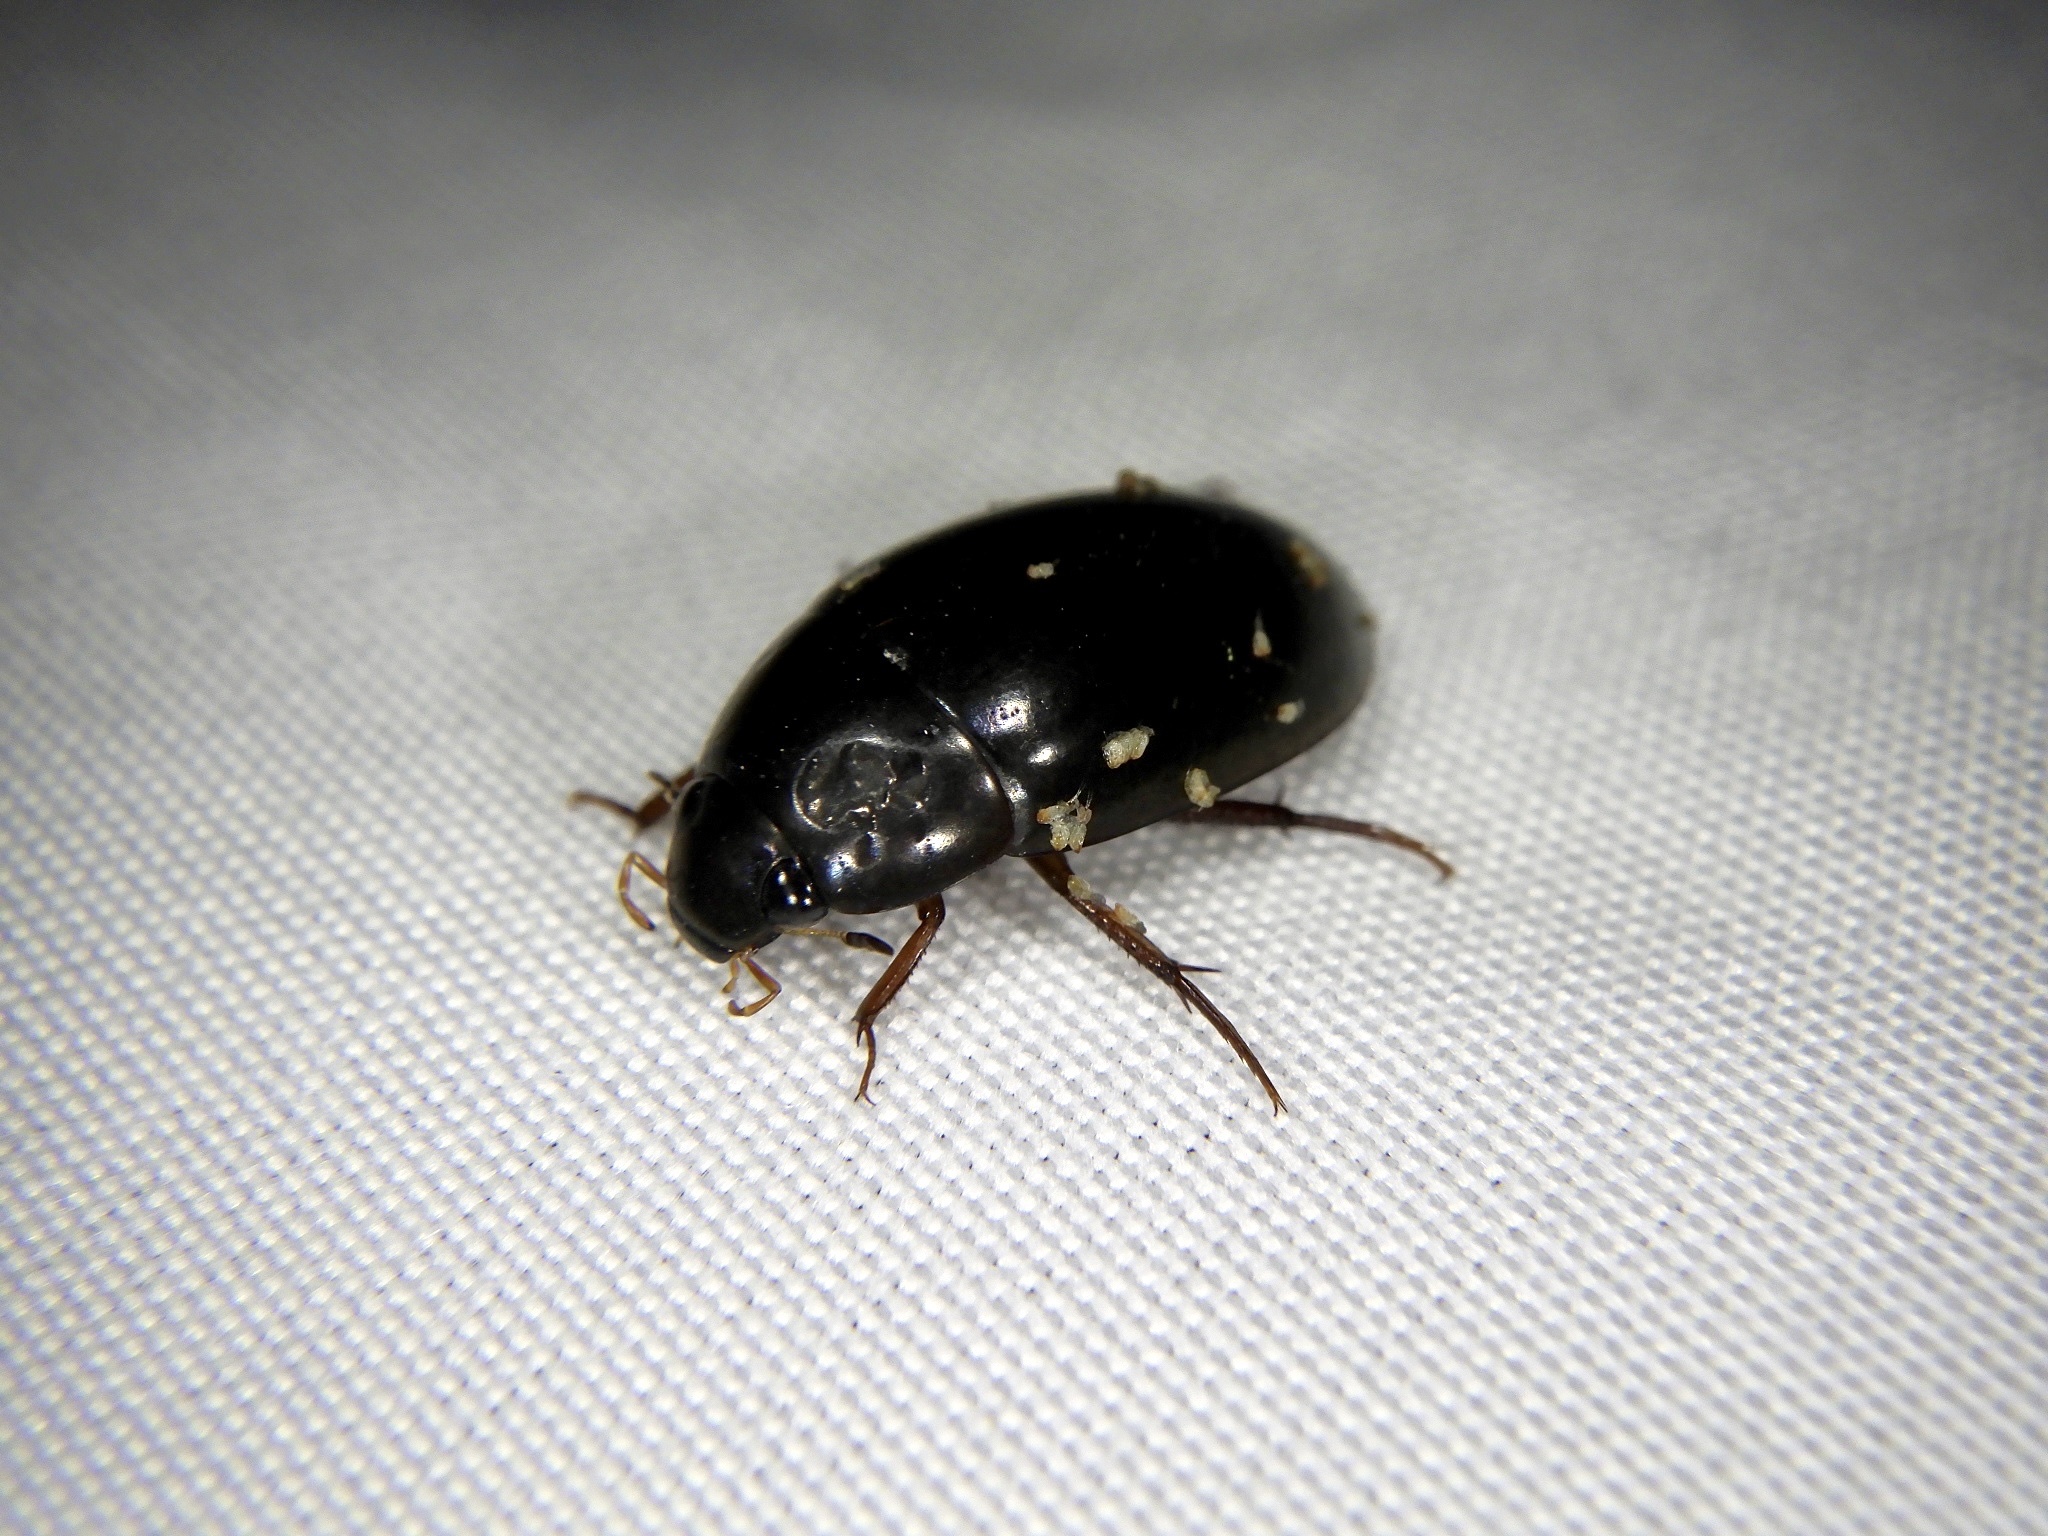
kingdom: Animalia
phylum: Arthropoda
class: Insecta
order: Coleoptera
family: Hydrophilidae
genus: Sternolophus
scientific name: Sternolophus rufipes
